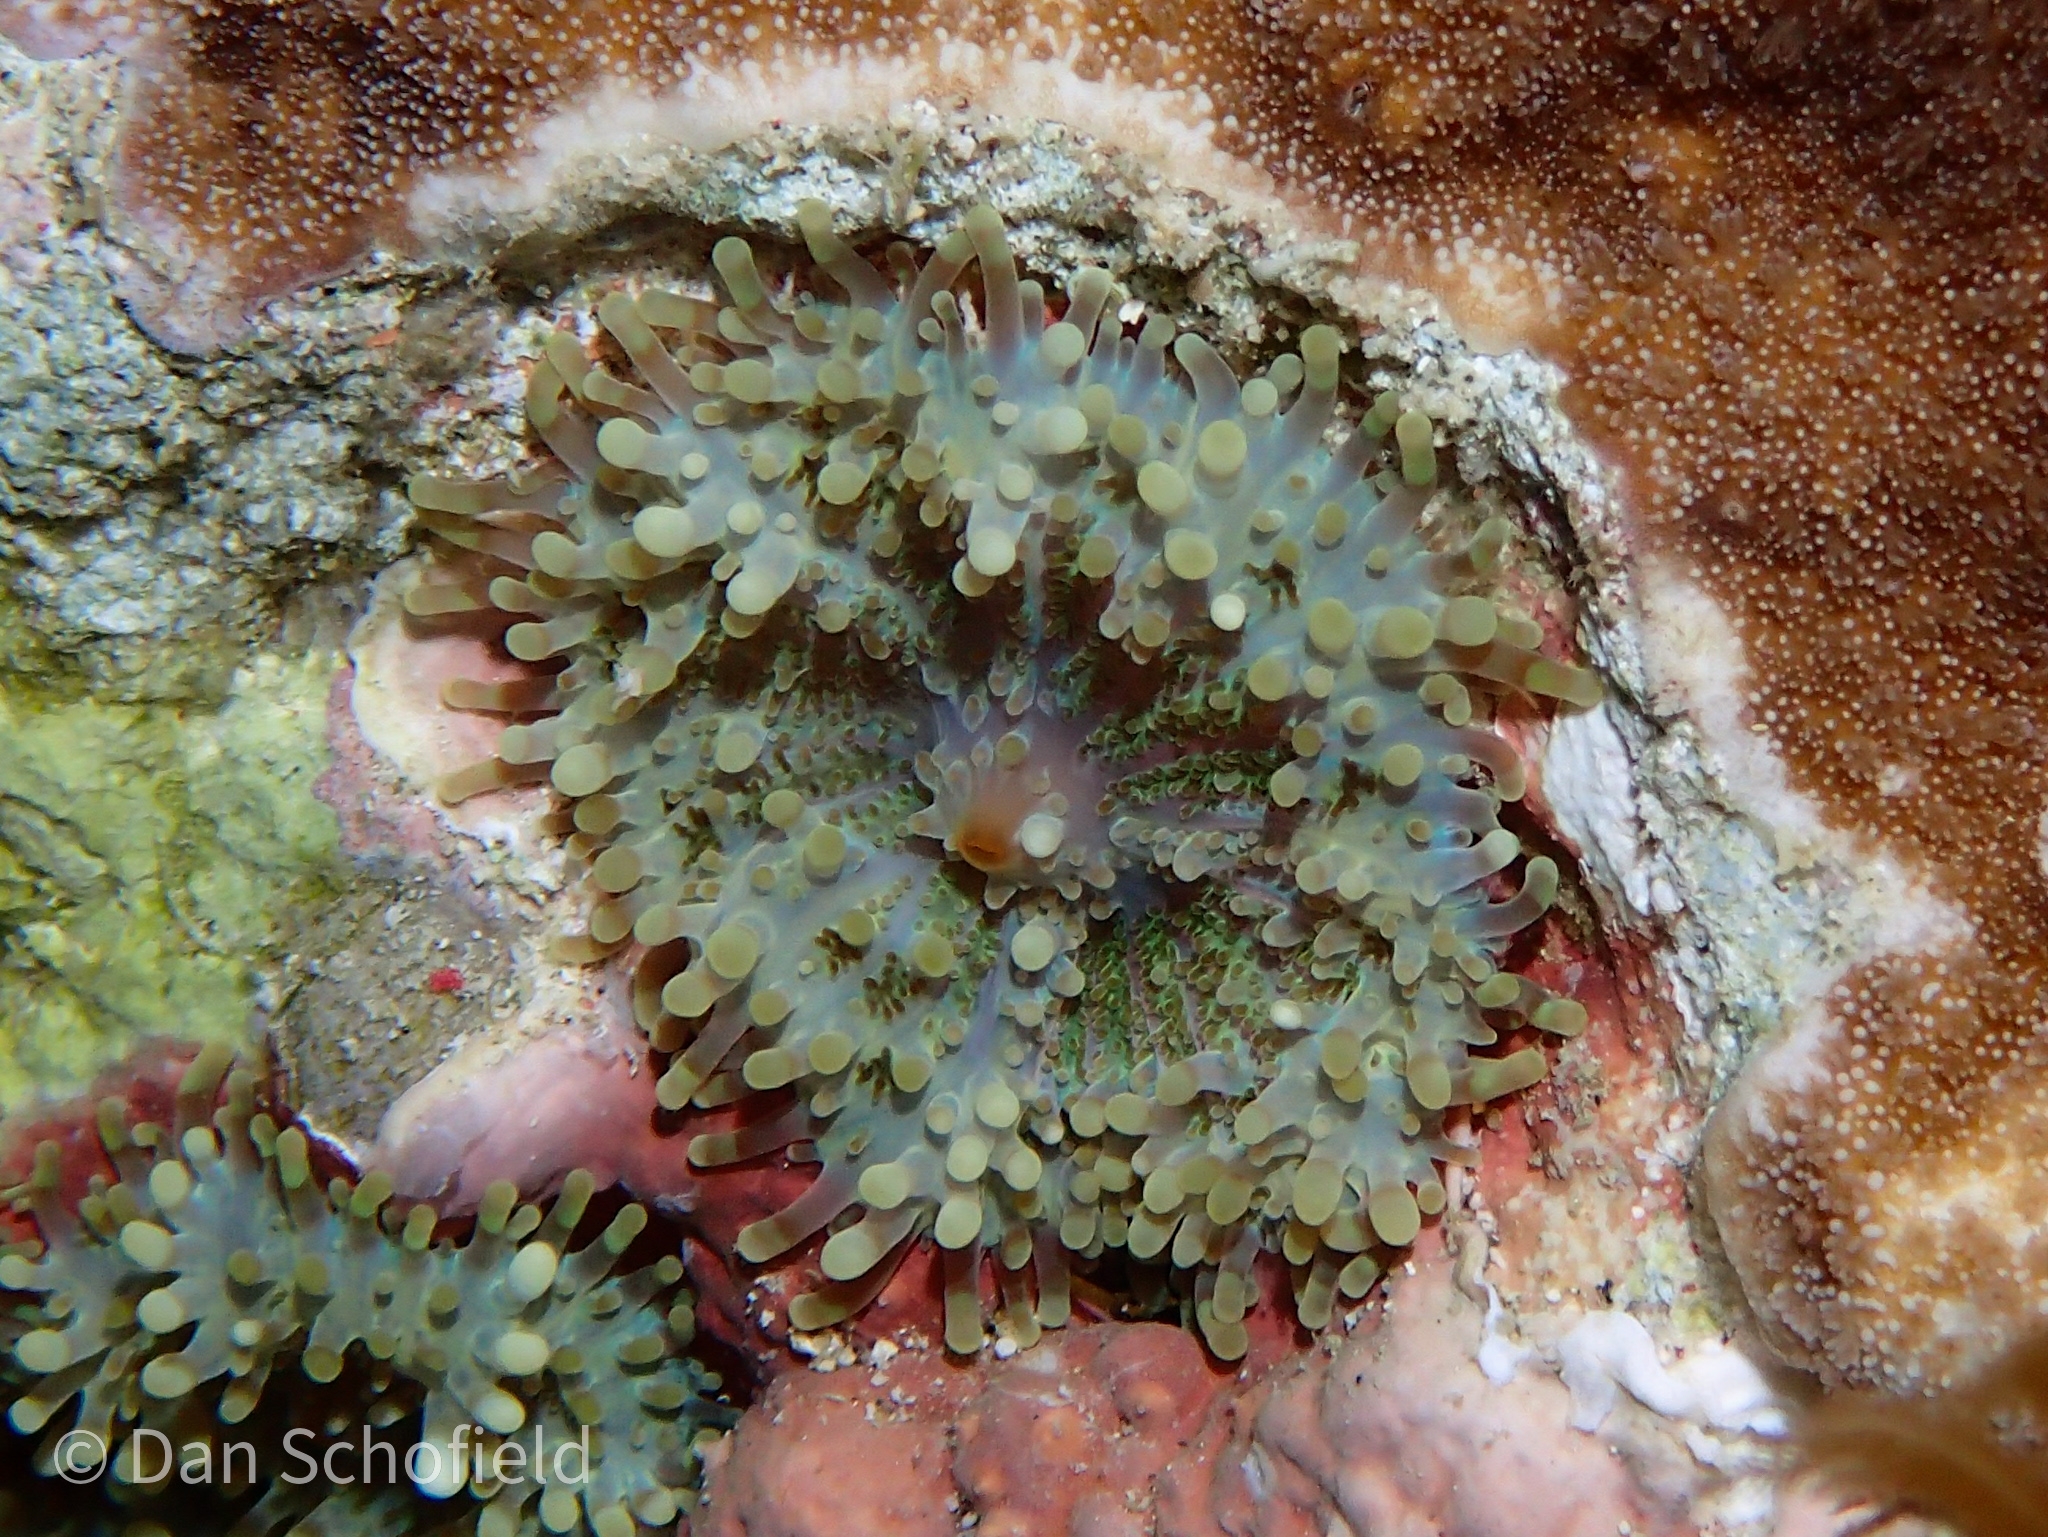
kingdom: Animalia
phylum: Cnidaria
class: Anthozoa
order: Corallimorpharia
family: Ricordeidae
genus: Ricordea
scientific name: Ricordea yuma
